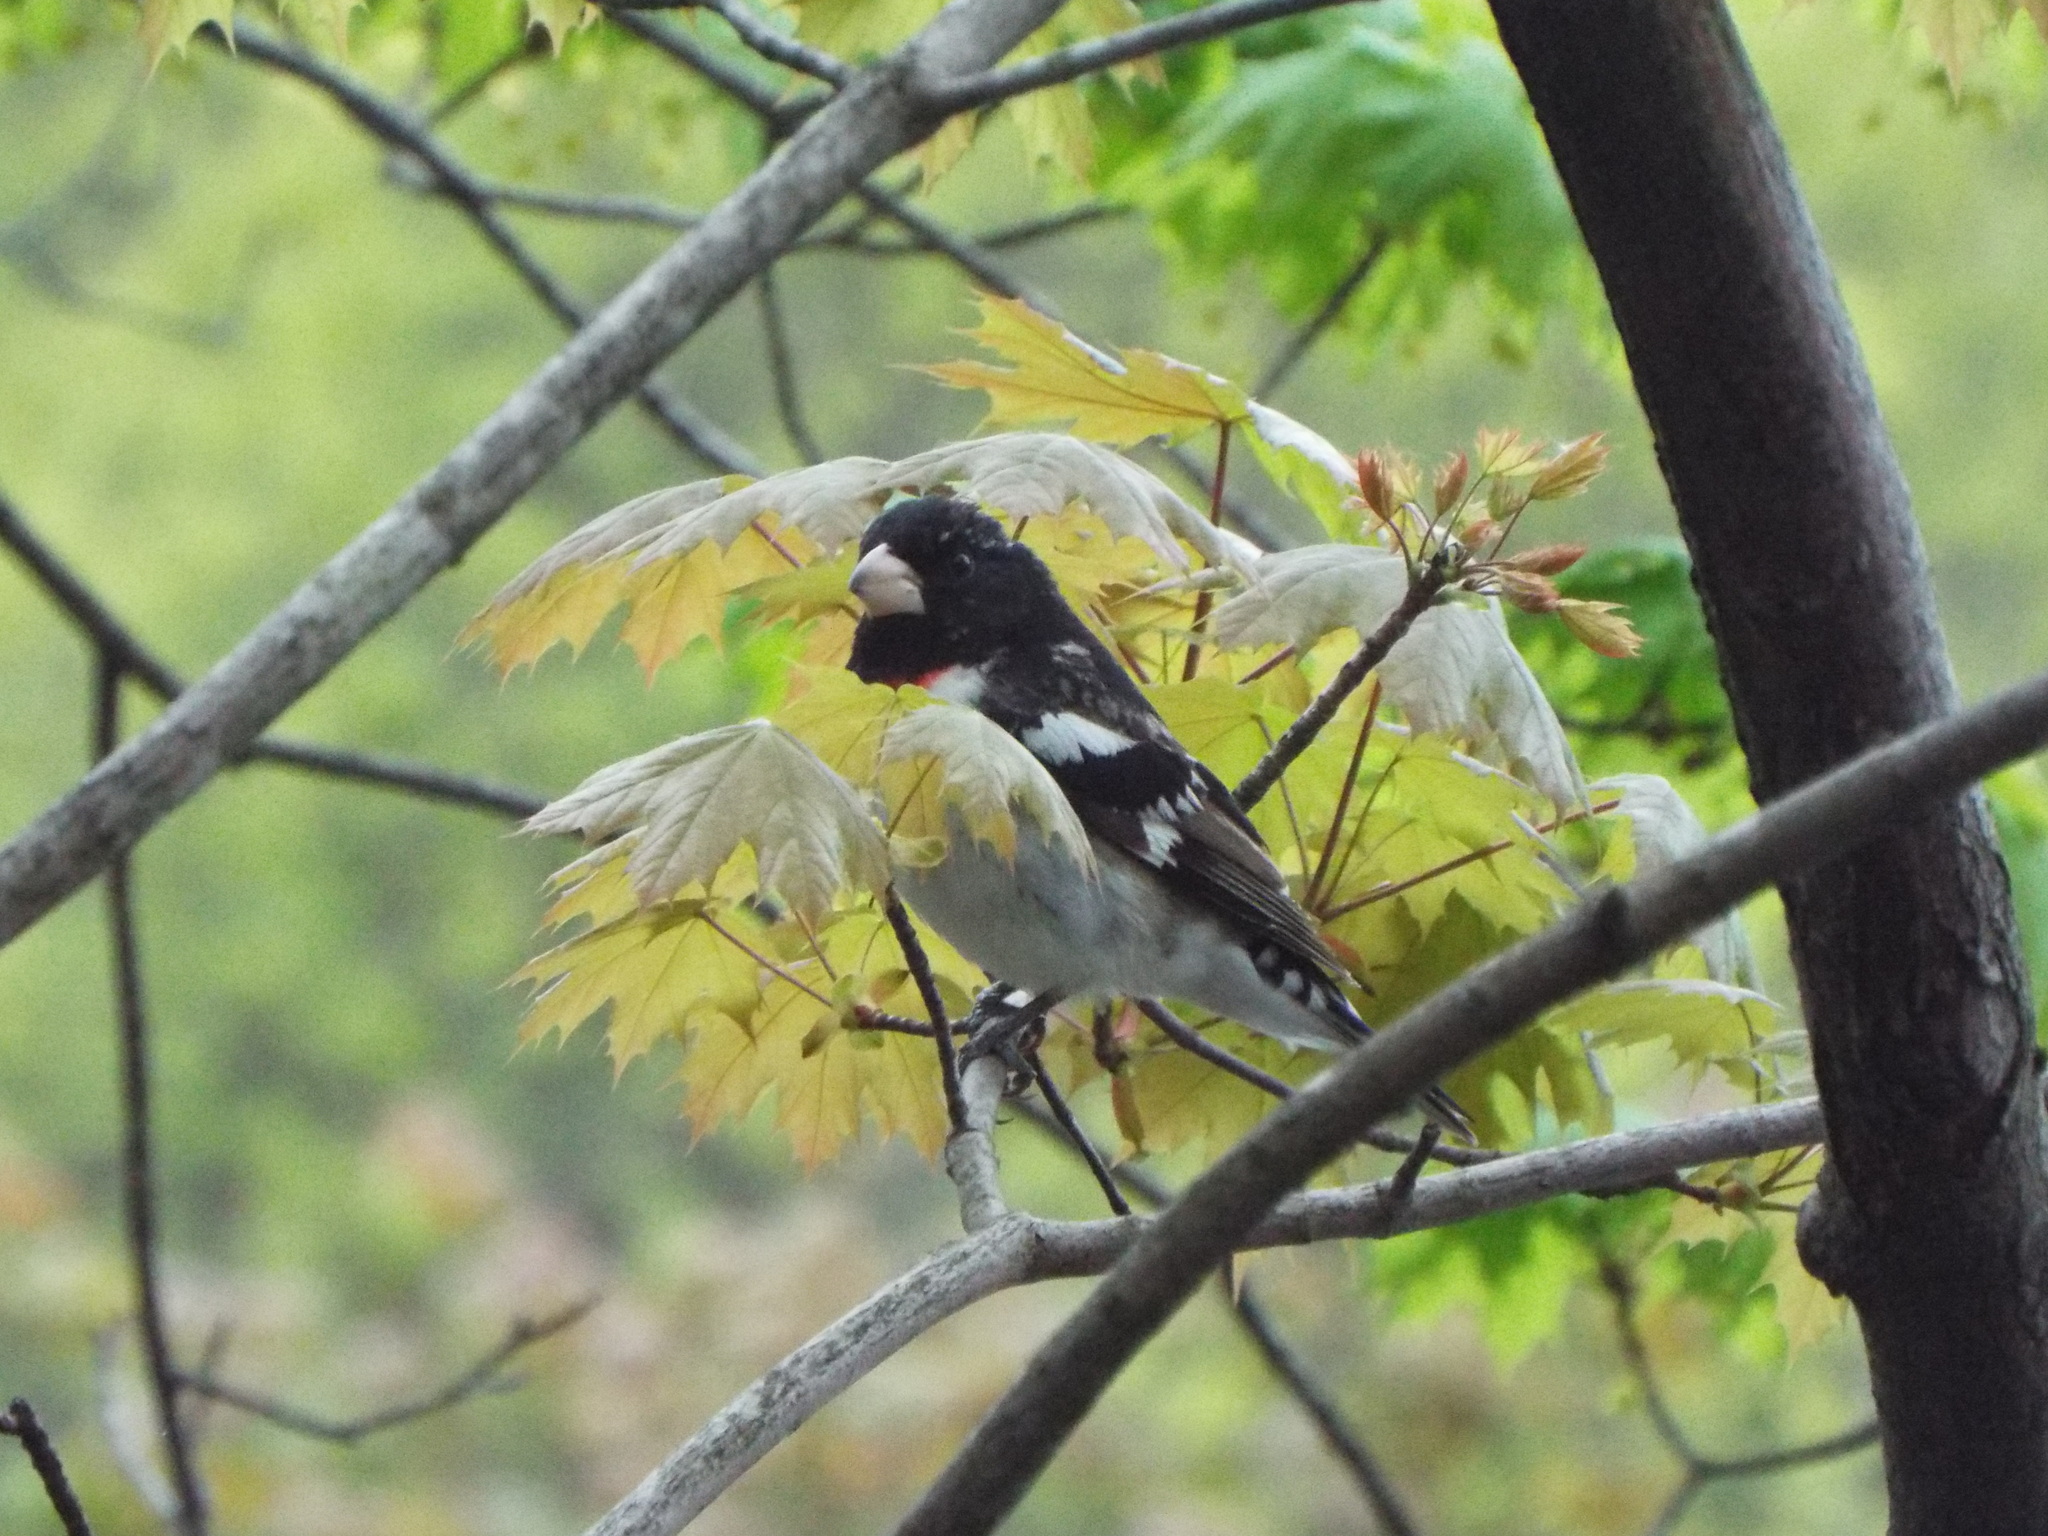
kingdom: Animalia
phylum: Chordata
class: Aves
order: Passeriformes
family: Cardinalidae
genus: Pheucticus
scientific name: Pheucticus ludovicianus
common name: Rose-breasted grosbeak
